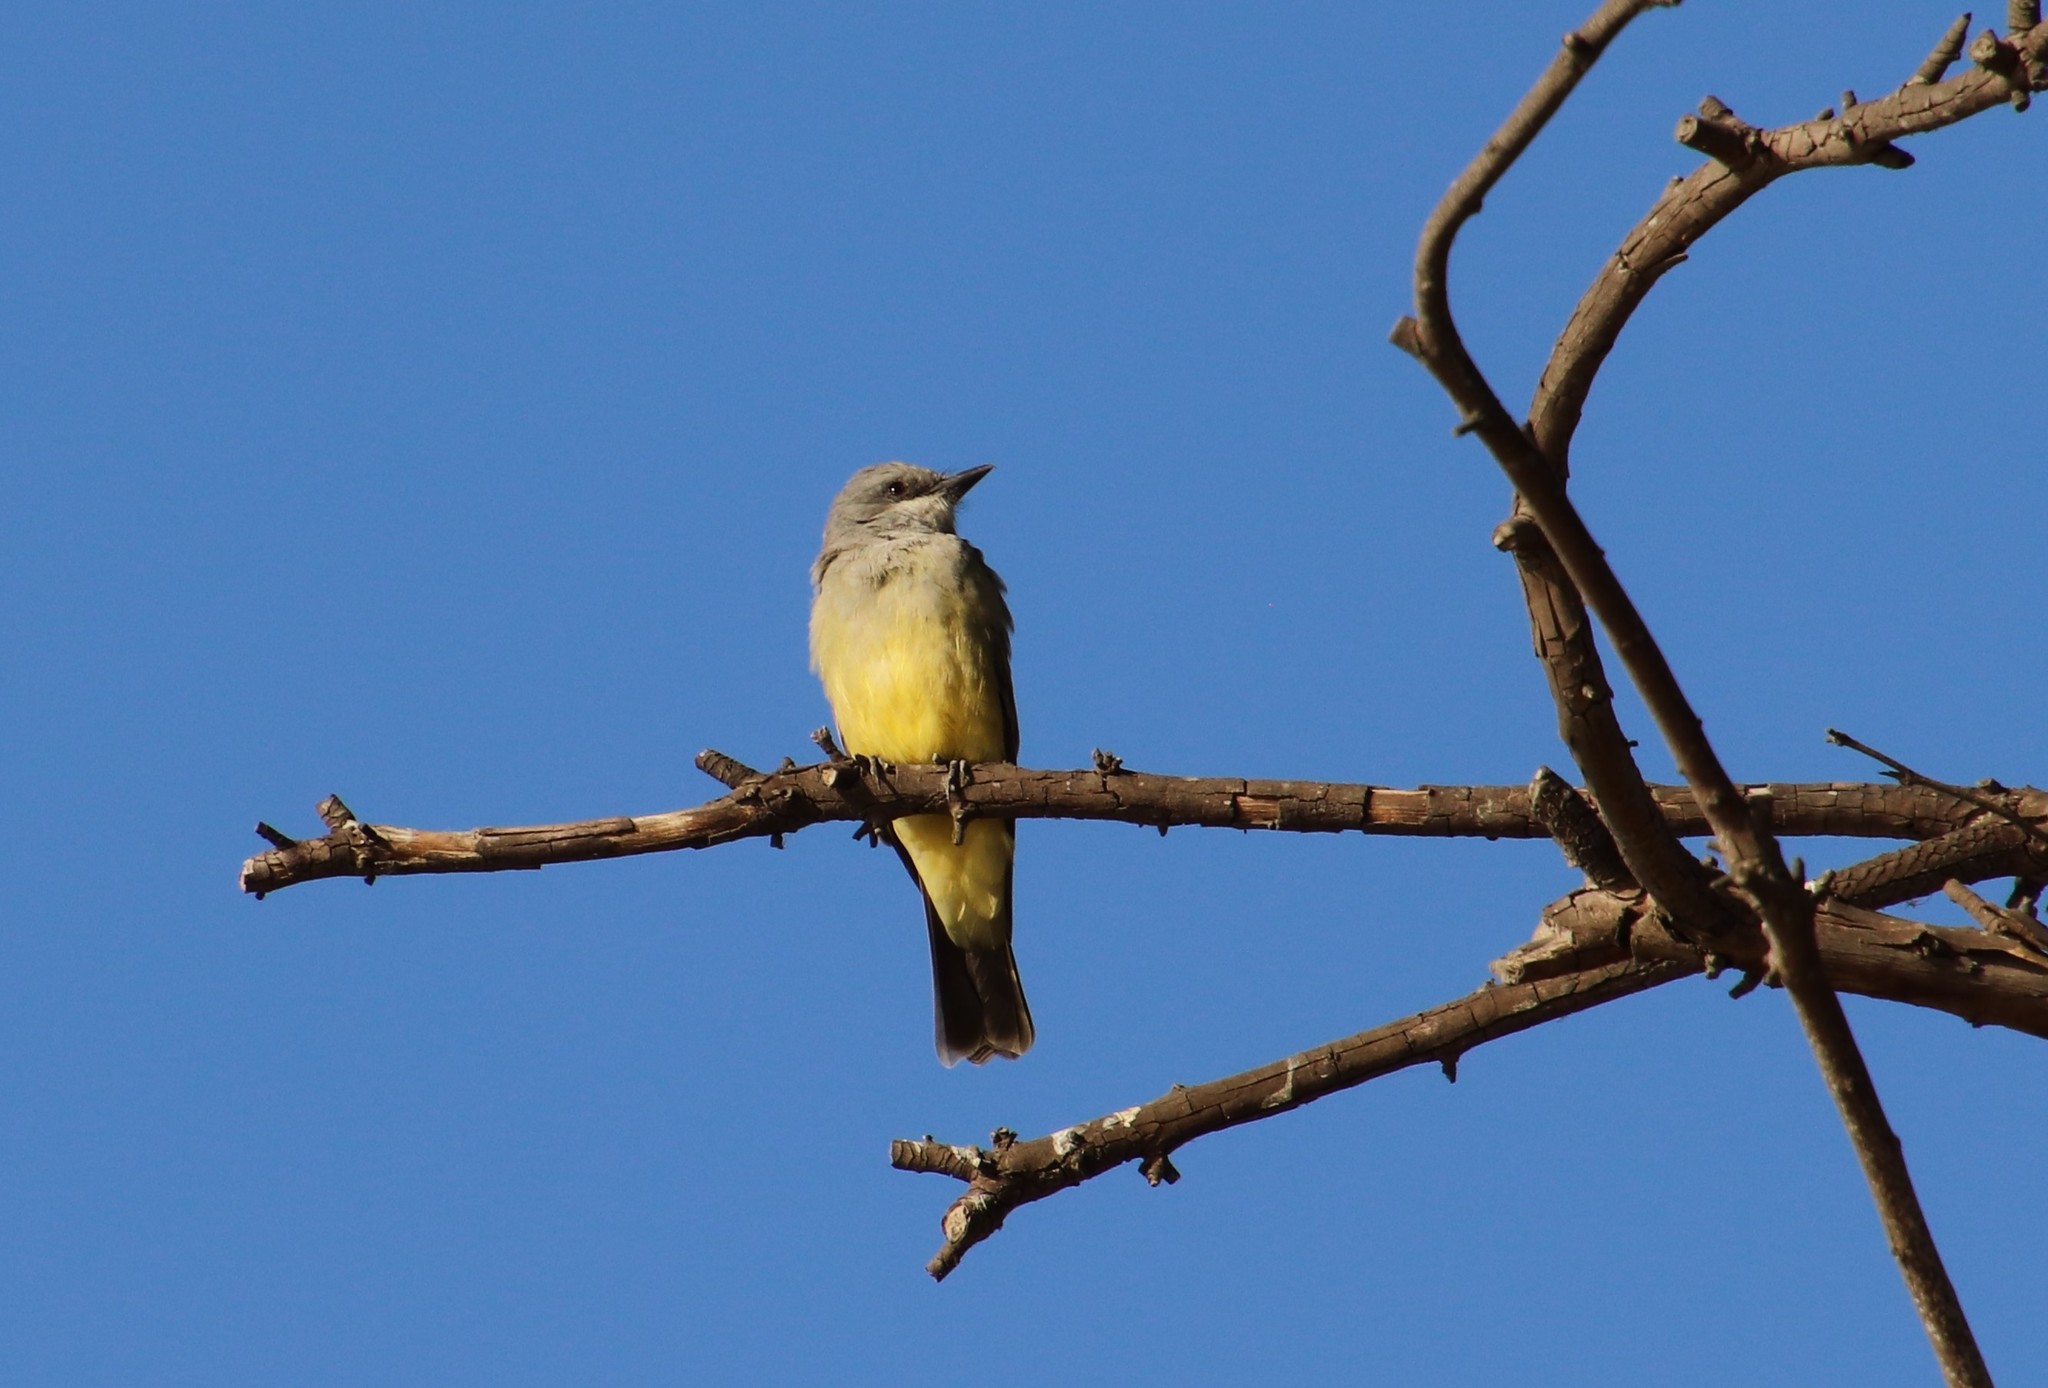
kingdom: Animalia
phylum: Chordata
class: Aves
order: Passeriformes
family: Tyrannidae
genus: Tyrannus
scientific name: Tyrannus vociferans
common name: Cassin's kingbird
